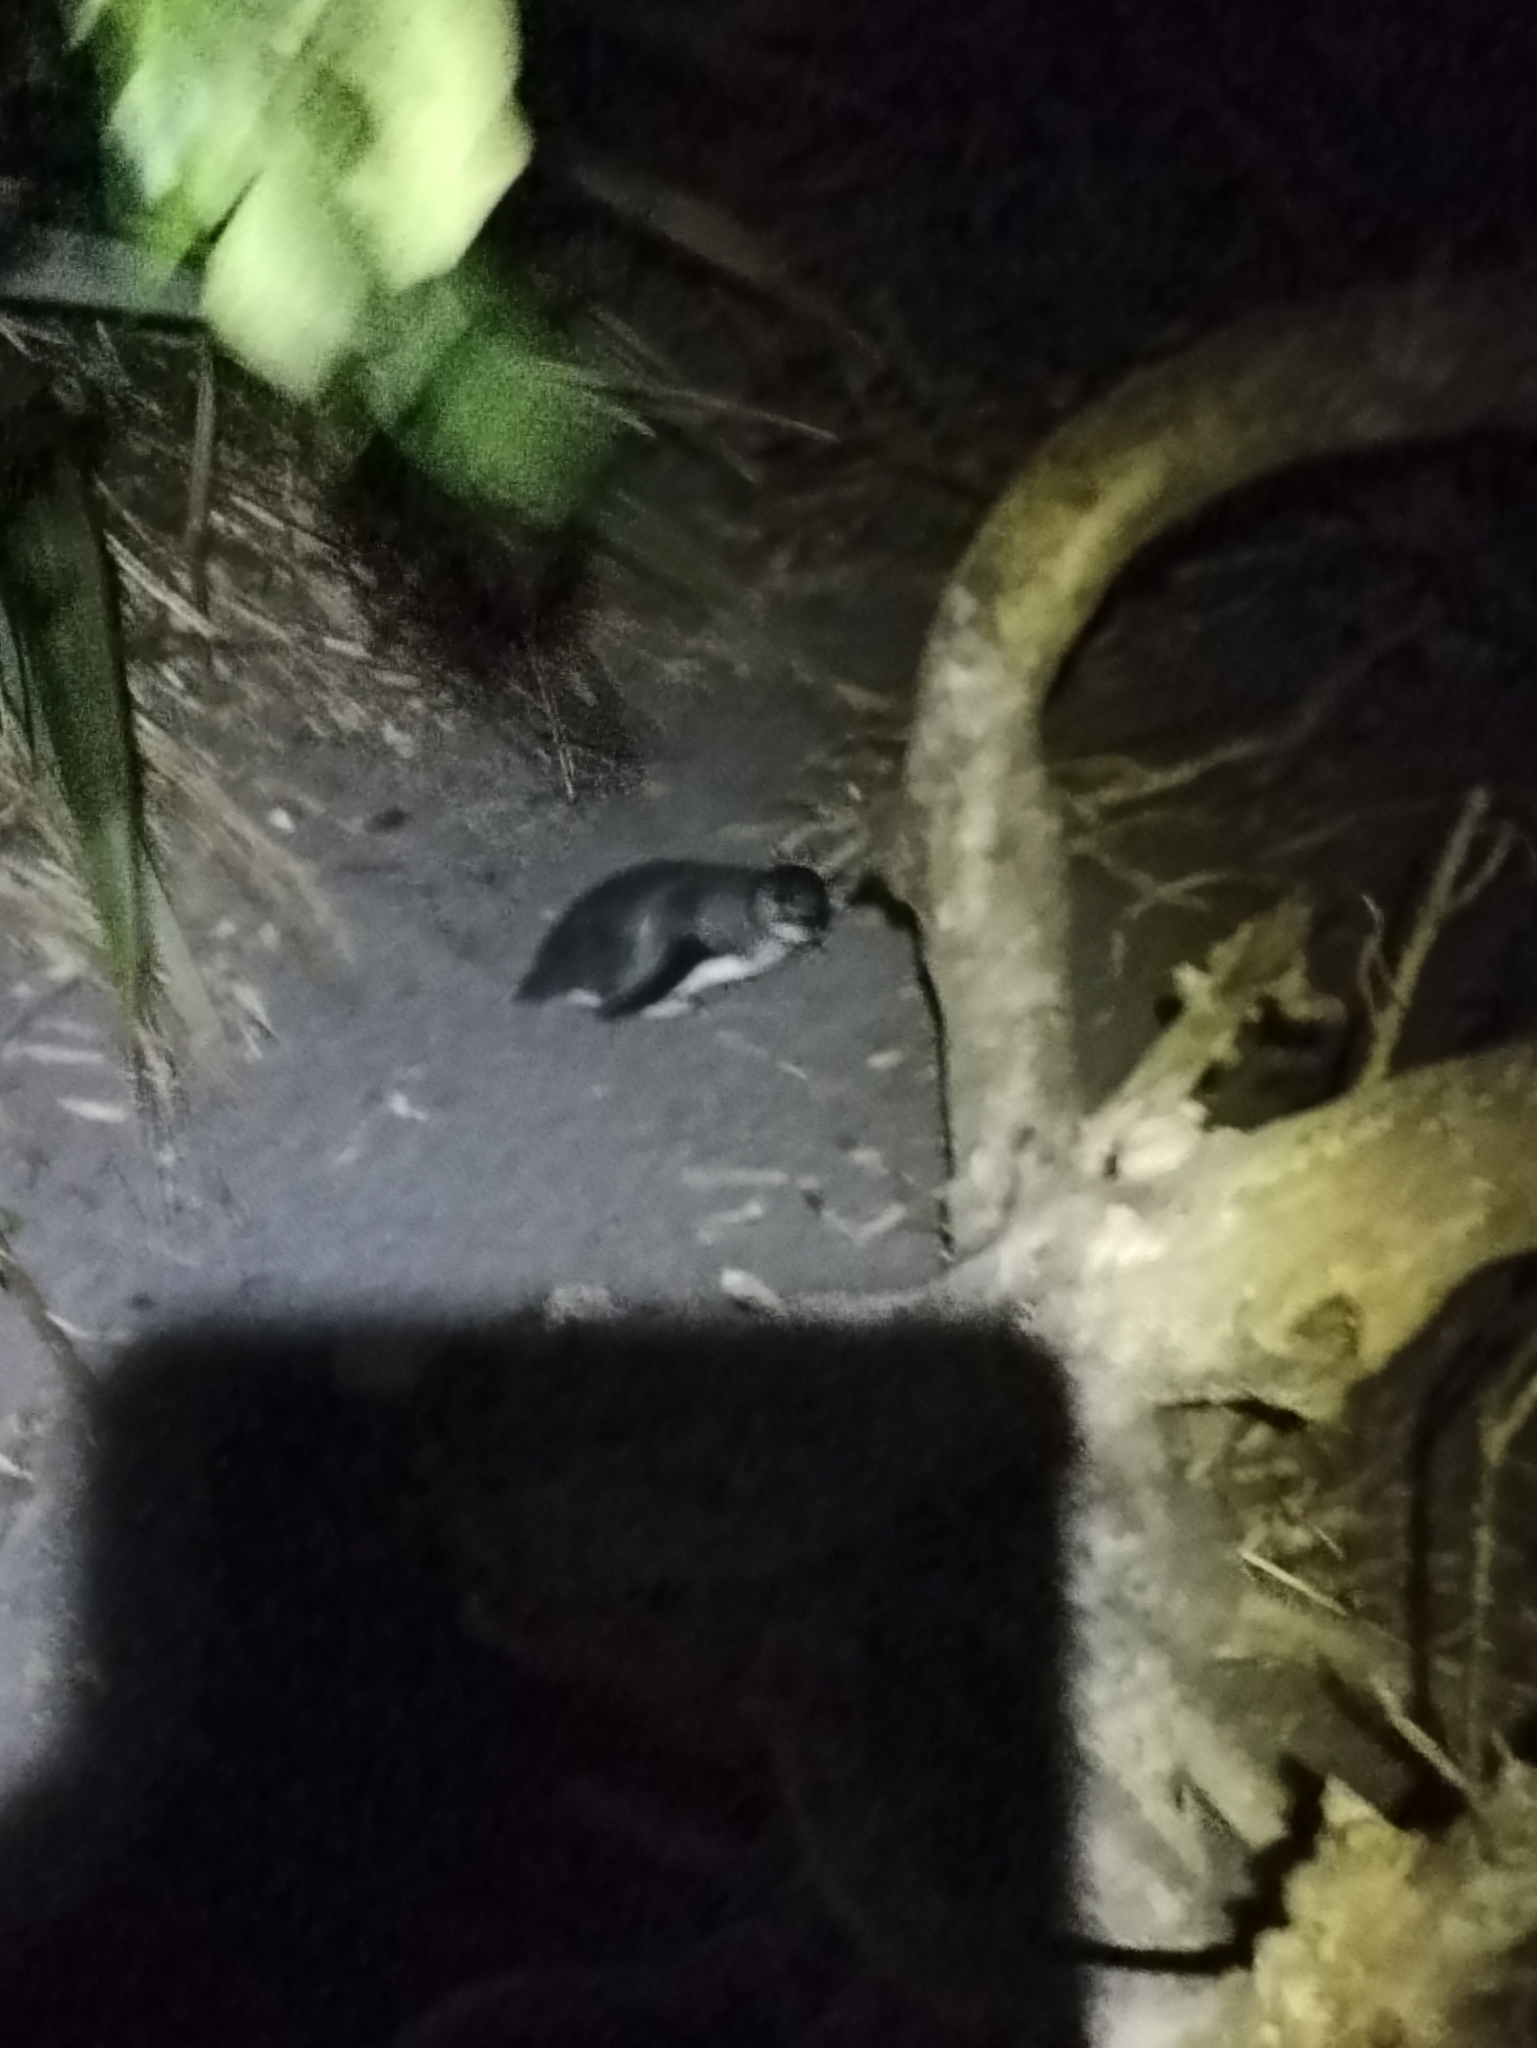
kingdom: Animalia
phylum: Chordata
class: Aves
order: Sphenisciformes
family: Spheniscidae
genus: Eudyptula
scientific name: Eudyptula minor
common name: Little penguin
